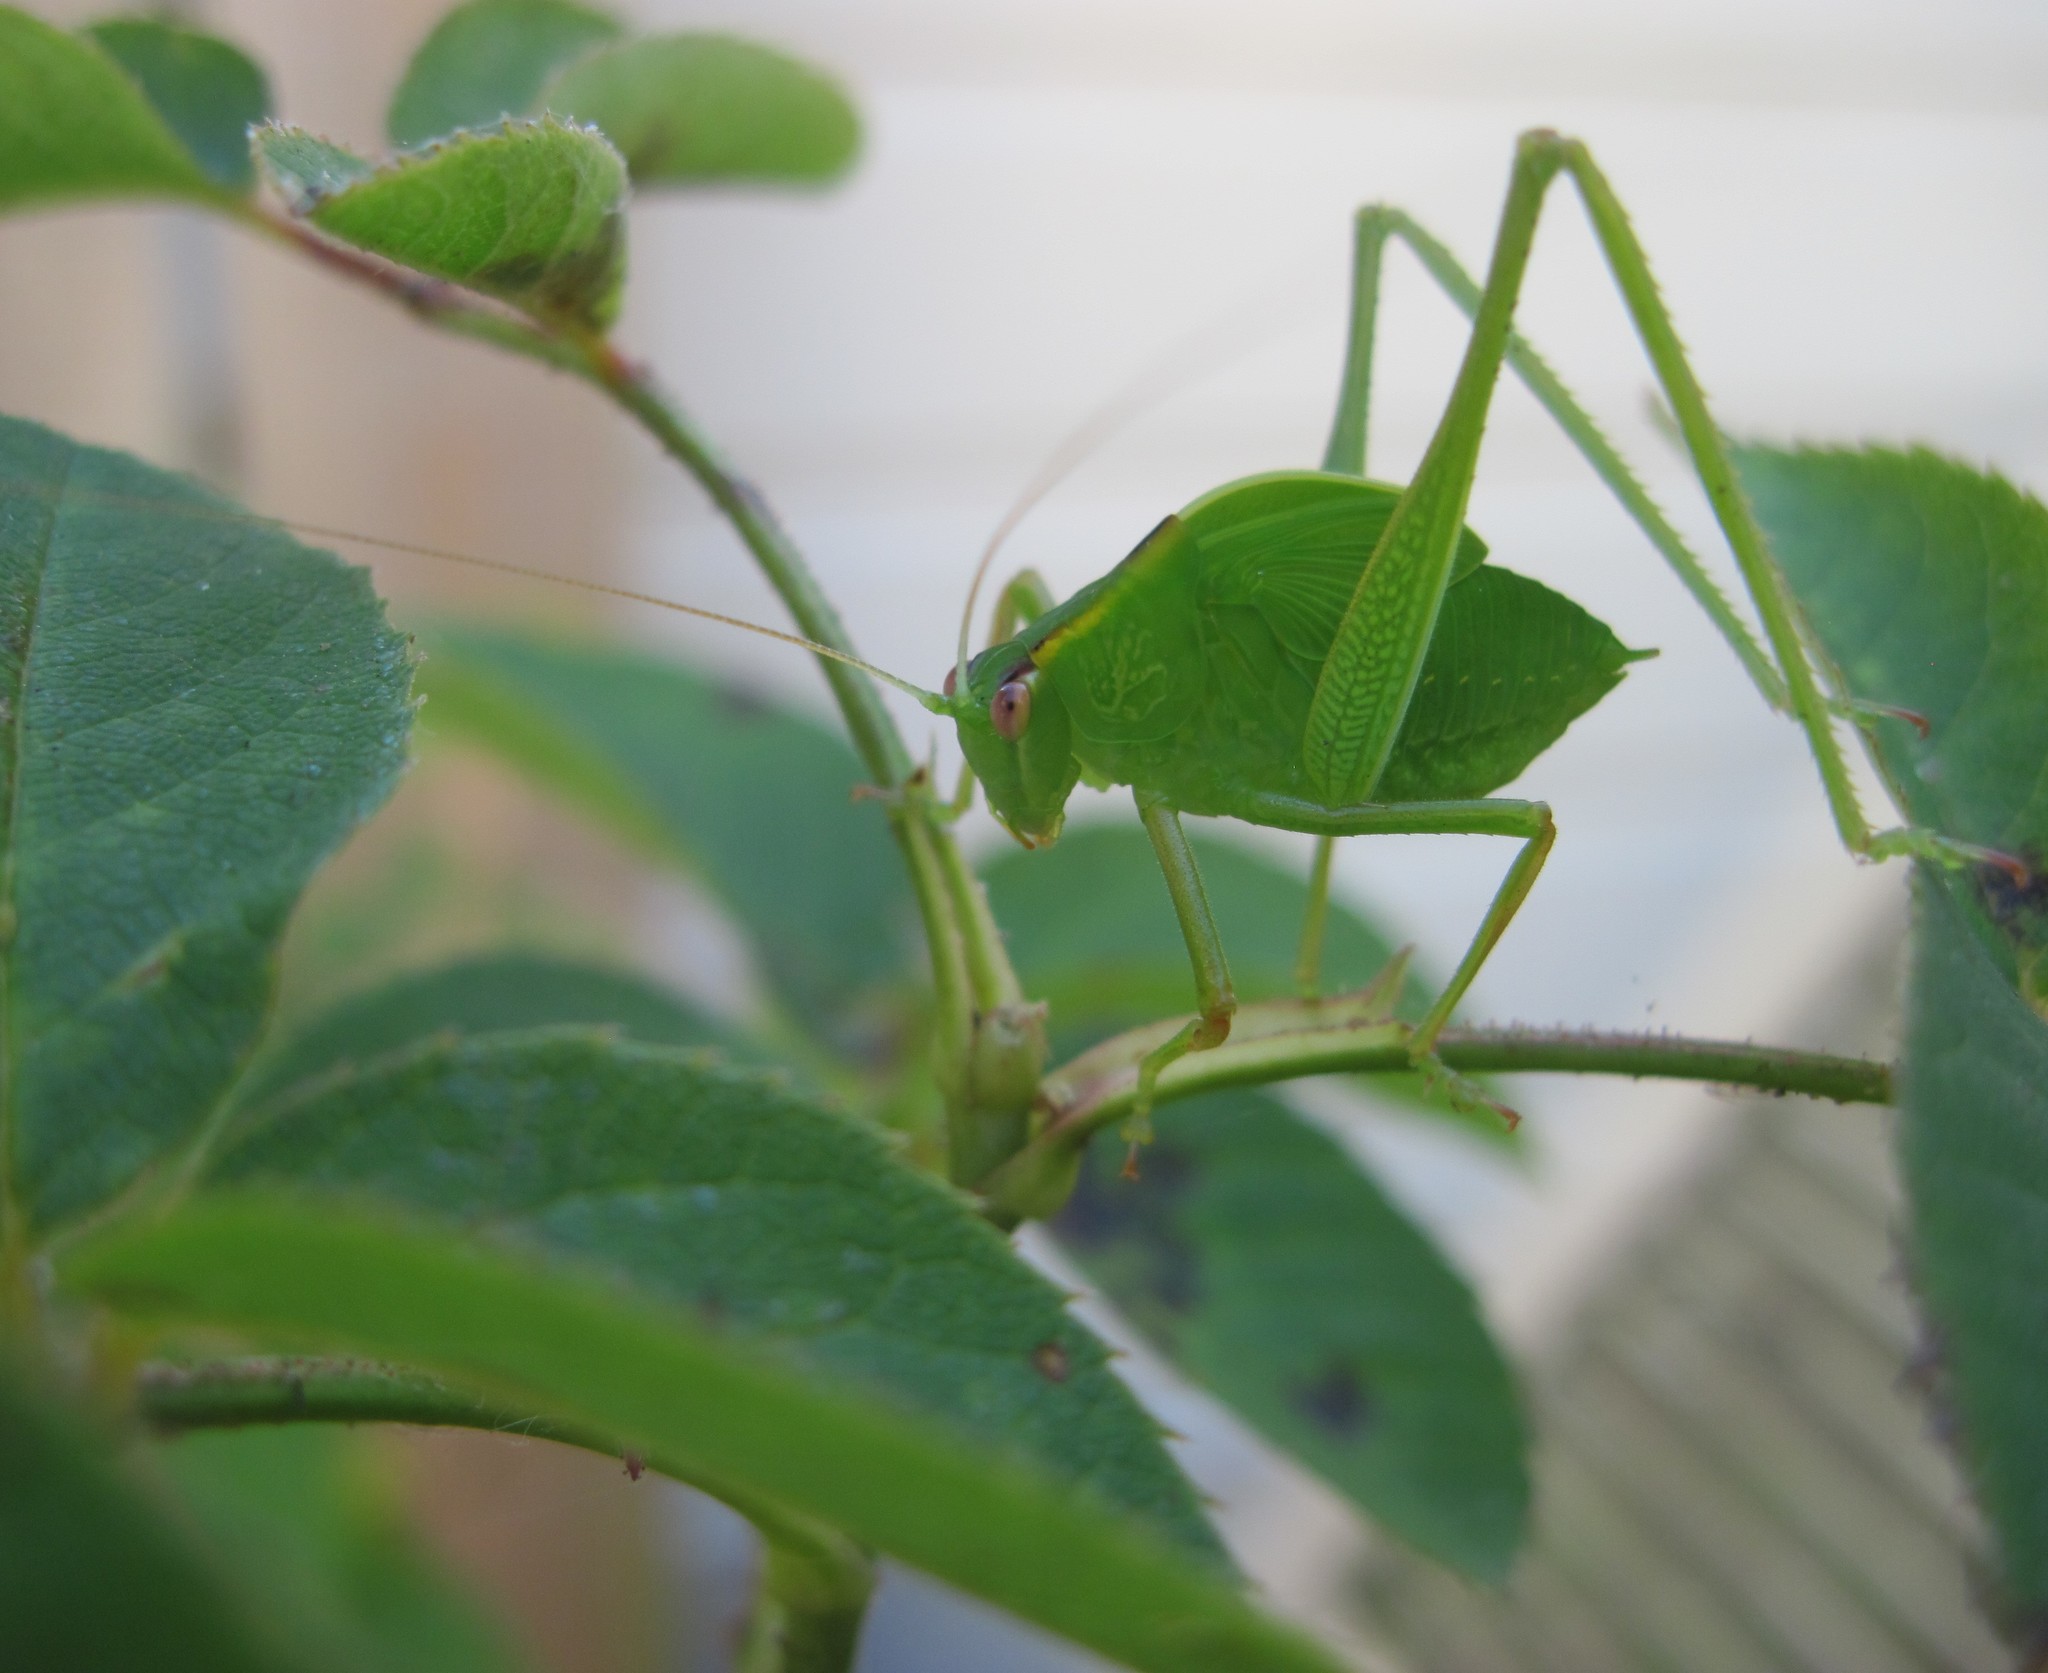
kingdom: Animalia
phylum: Arthropoda
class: Insecta
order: Orthoptera
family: Tettigoniidae
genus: Caedicia
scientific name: Caedicia simplex
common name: Common garden katydid
